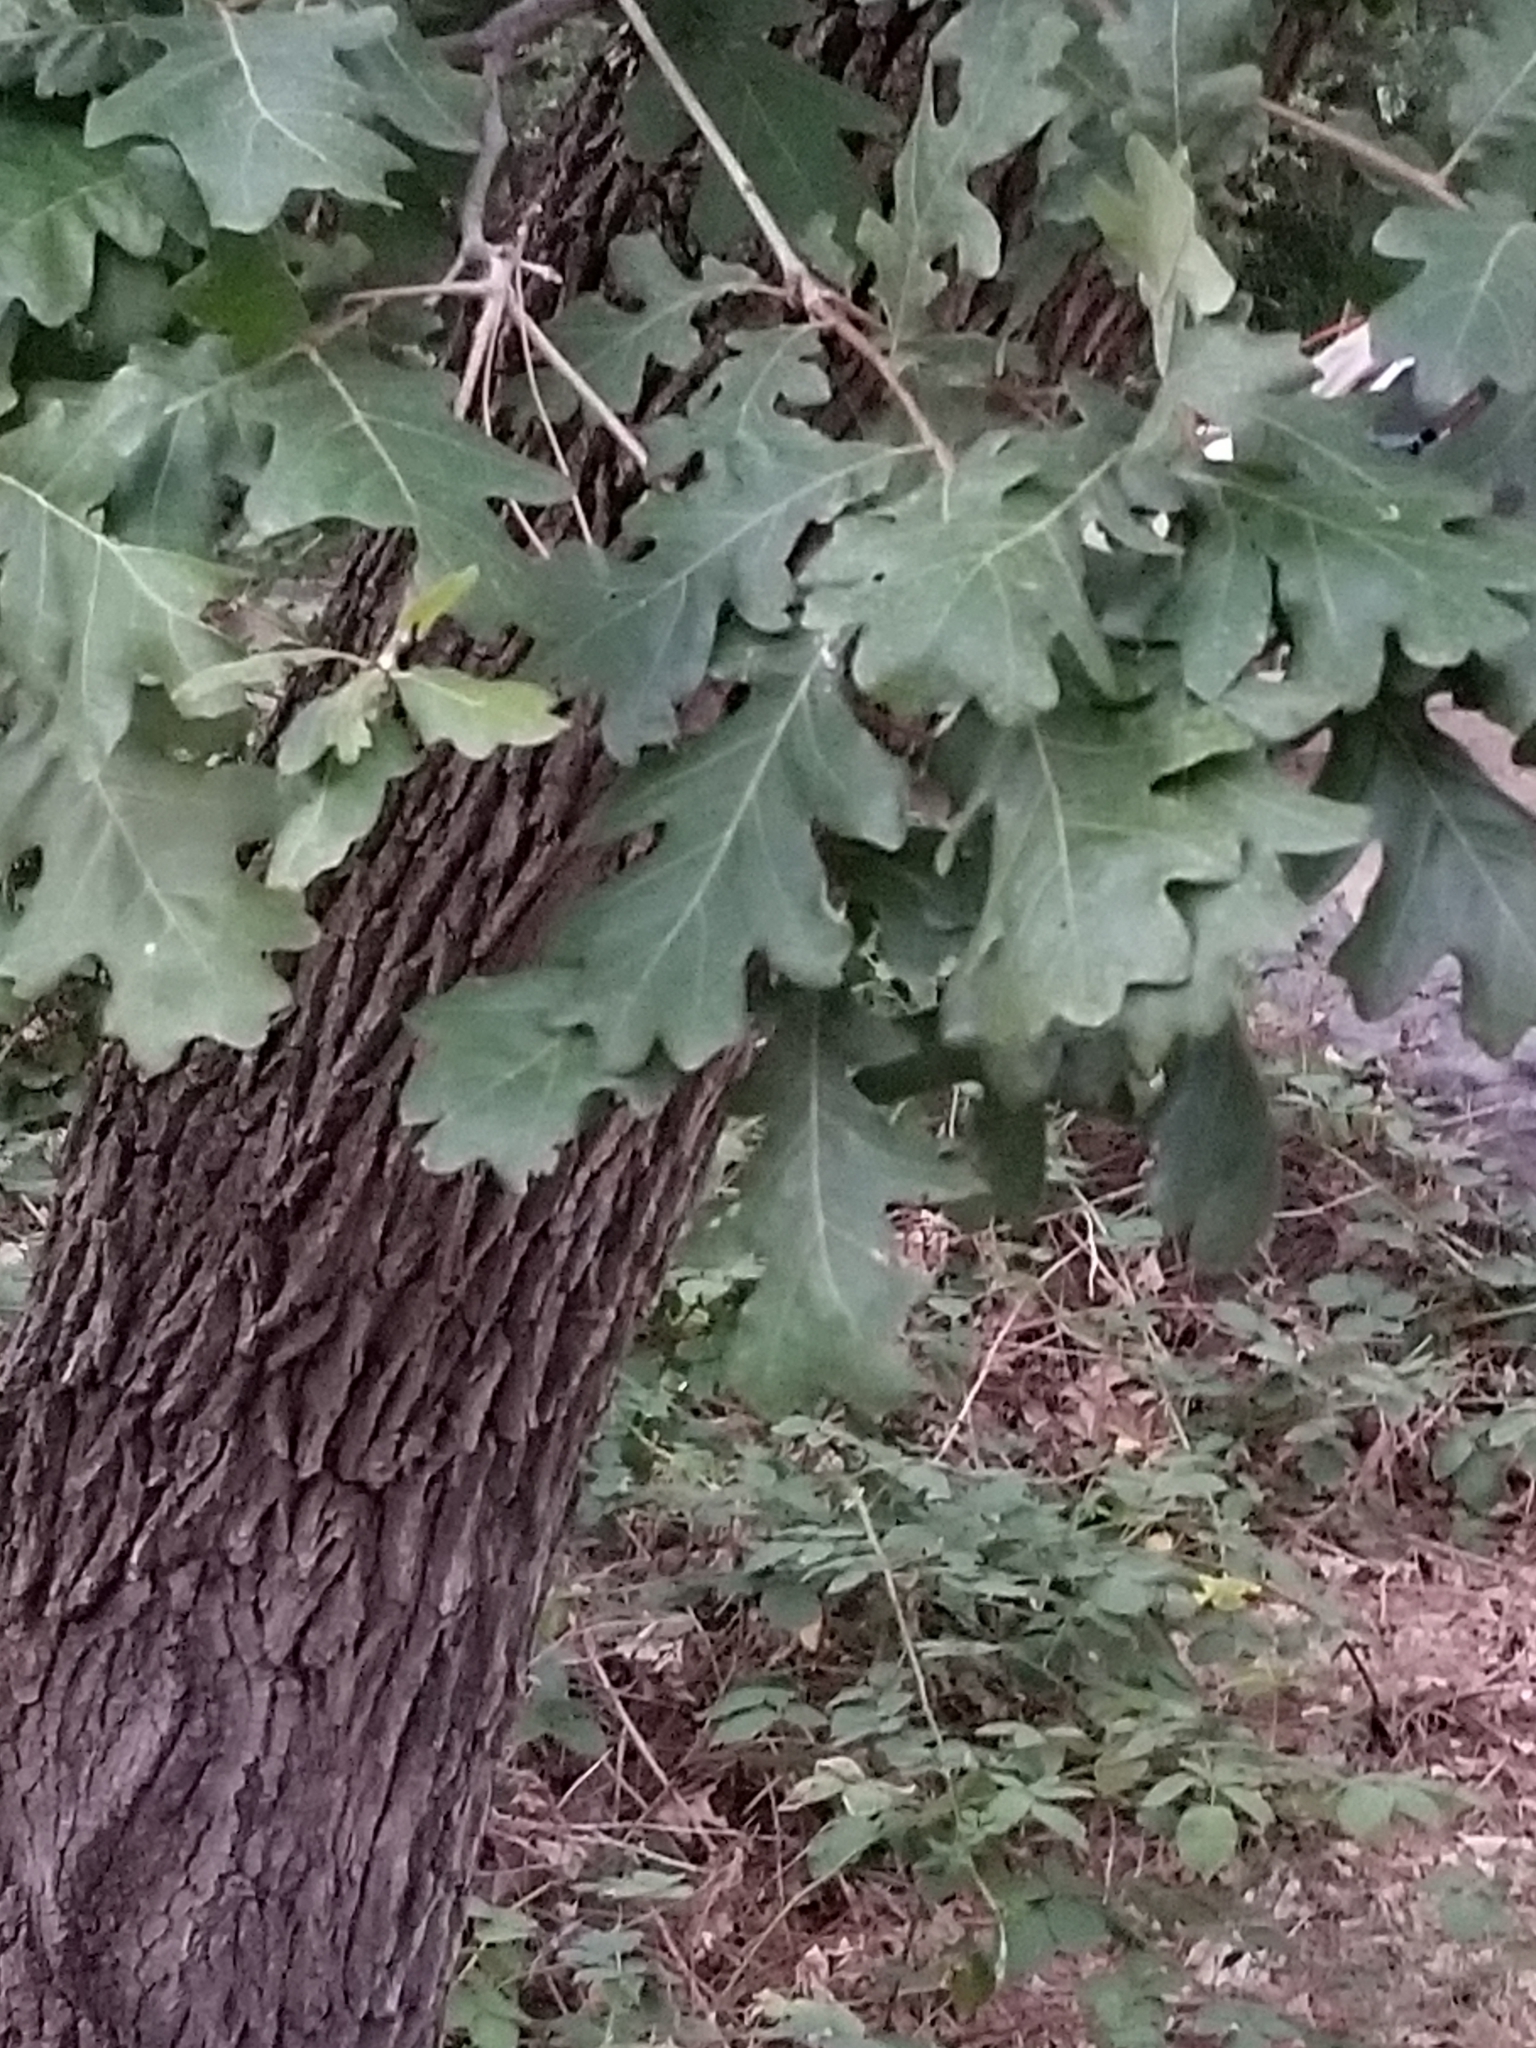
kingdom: Plantae
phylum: Tracheophyta
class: Magnoliopsida
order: Fagales
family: Fagaceae
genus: Quercus
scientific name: Quercus gambelii
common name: Gambel oak
